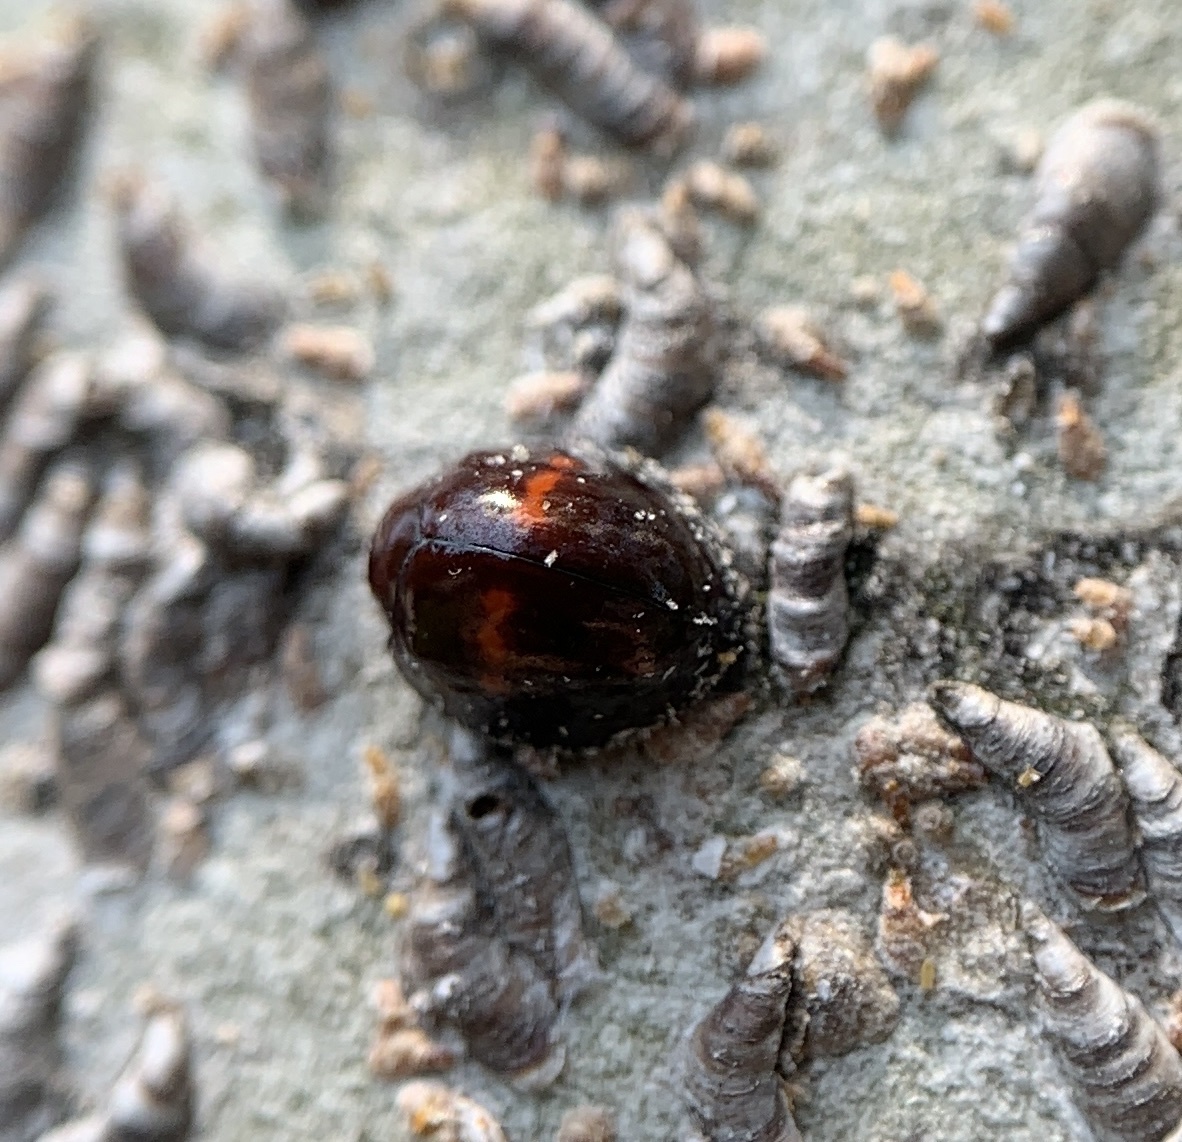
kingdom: Animalia
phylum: Arthropoda
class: Insecta
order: Coleoptera
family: Coccinellidae
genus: Chilocorus
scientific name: Chilocorus bipustulatus
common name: Heather ladybird
